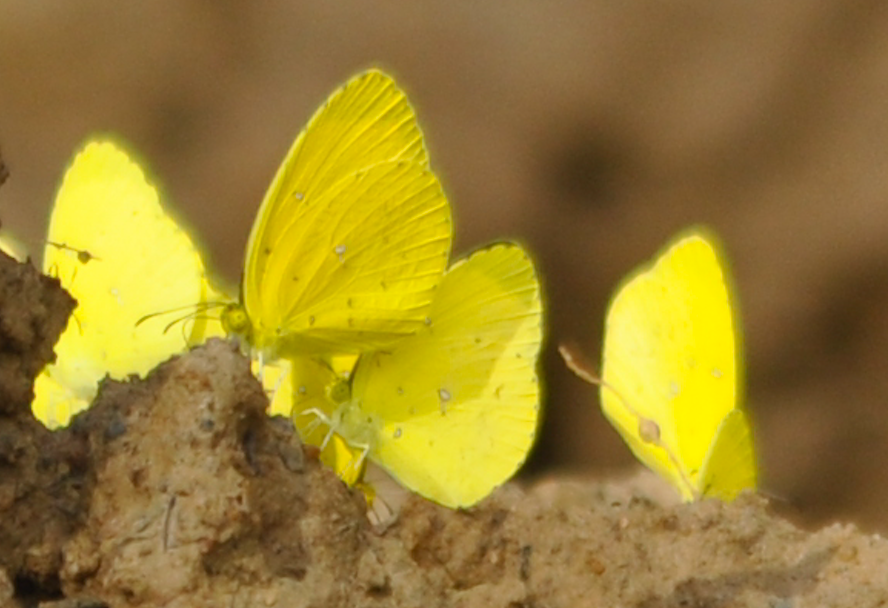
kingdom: Animalia
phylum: Arthropoda
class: Insecta
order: Lepidoptera
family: Pieridae
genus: Eurema
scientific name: Eurema floricola
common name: Malagasy grass yellow
